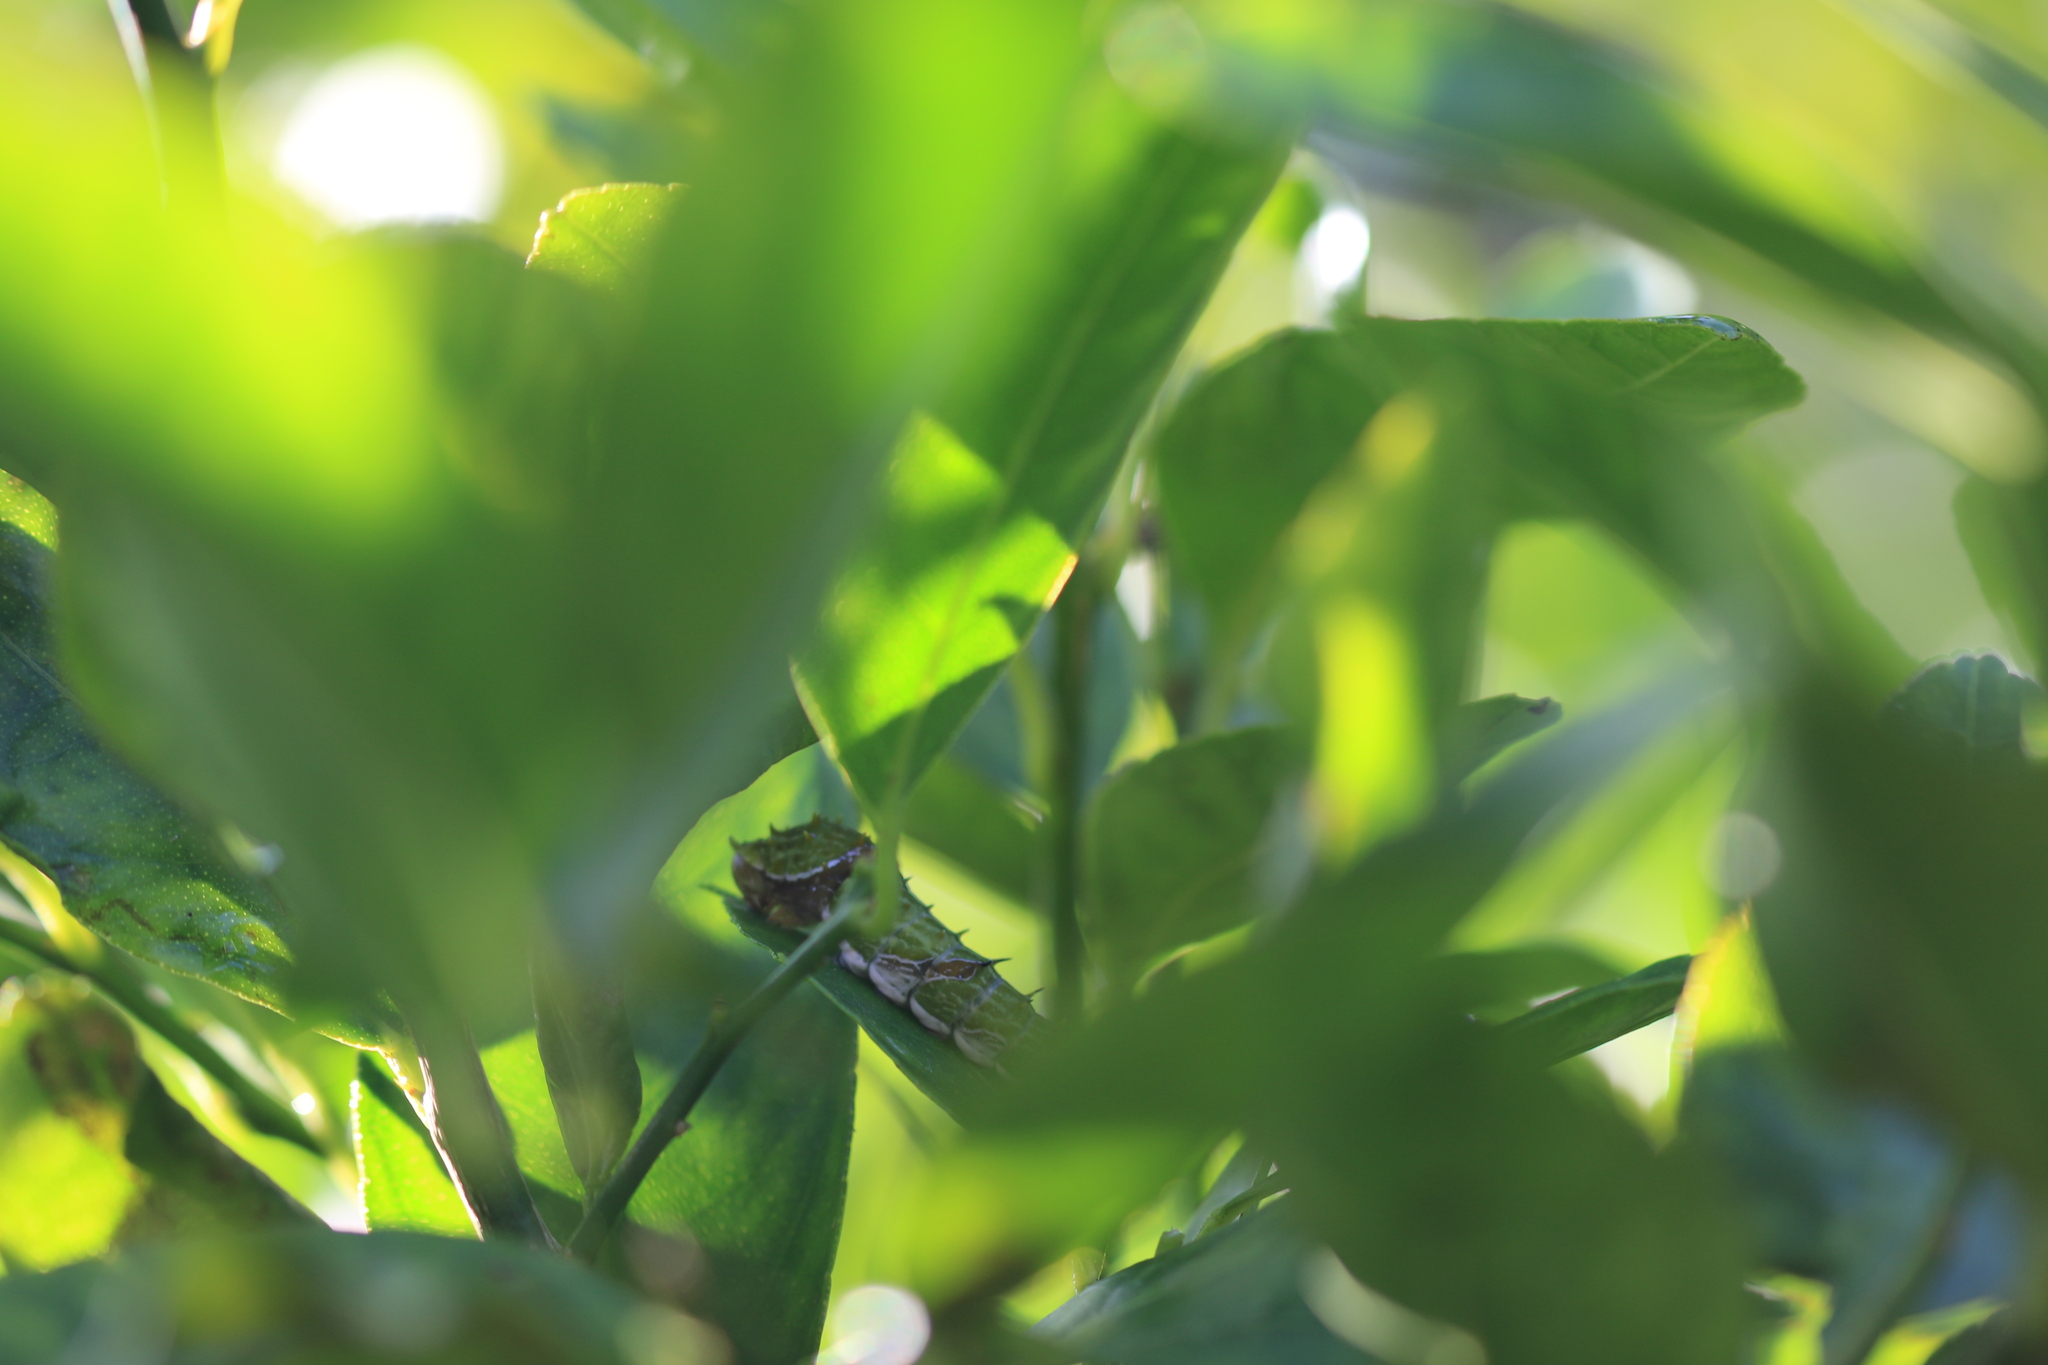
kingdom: Animalia
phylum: Arthropoda
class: Insecta
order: Lepidoptera
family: Papilionidae
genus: Papilio
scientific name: Papilio aegeus
